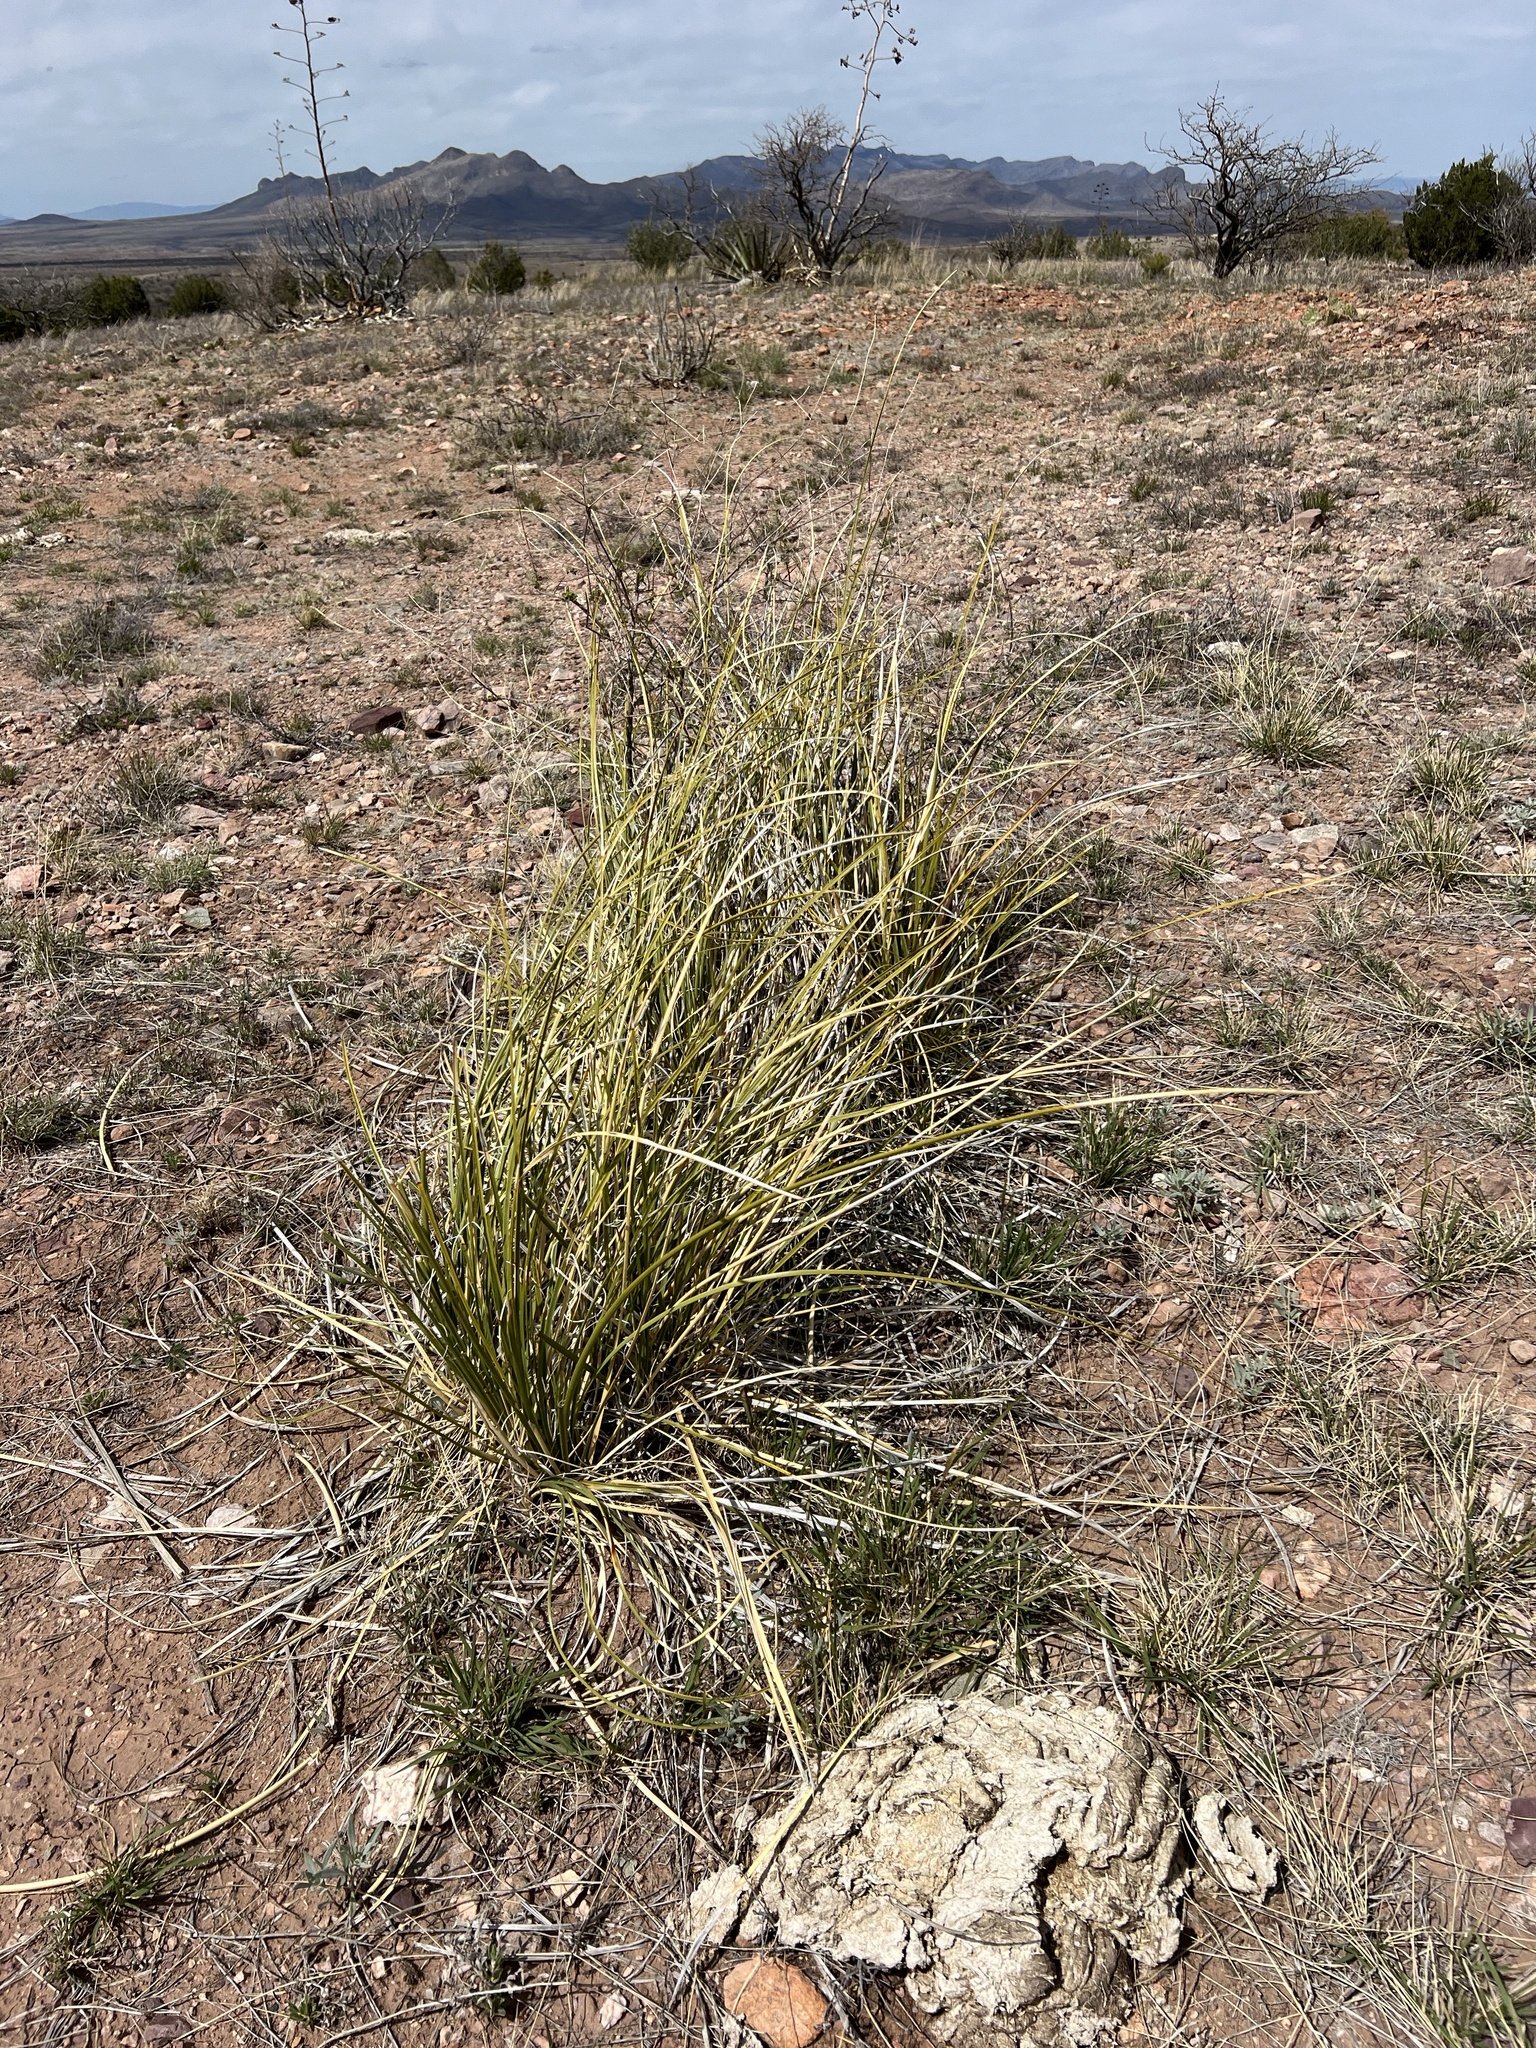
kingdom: Plantae
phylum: Tracheophyta
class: Liliopsida
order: Asparagales
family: Asparagaceae
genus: Nolina
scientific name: Nolina microcarpa
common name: Bear-grass
